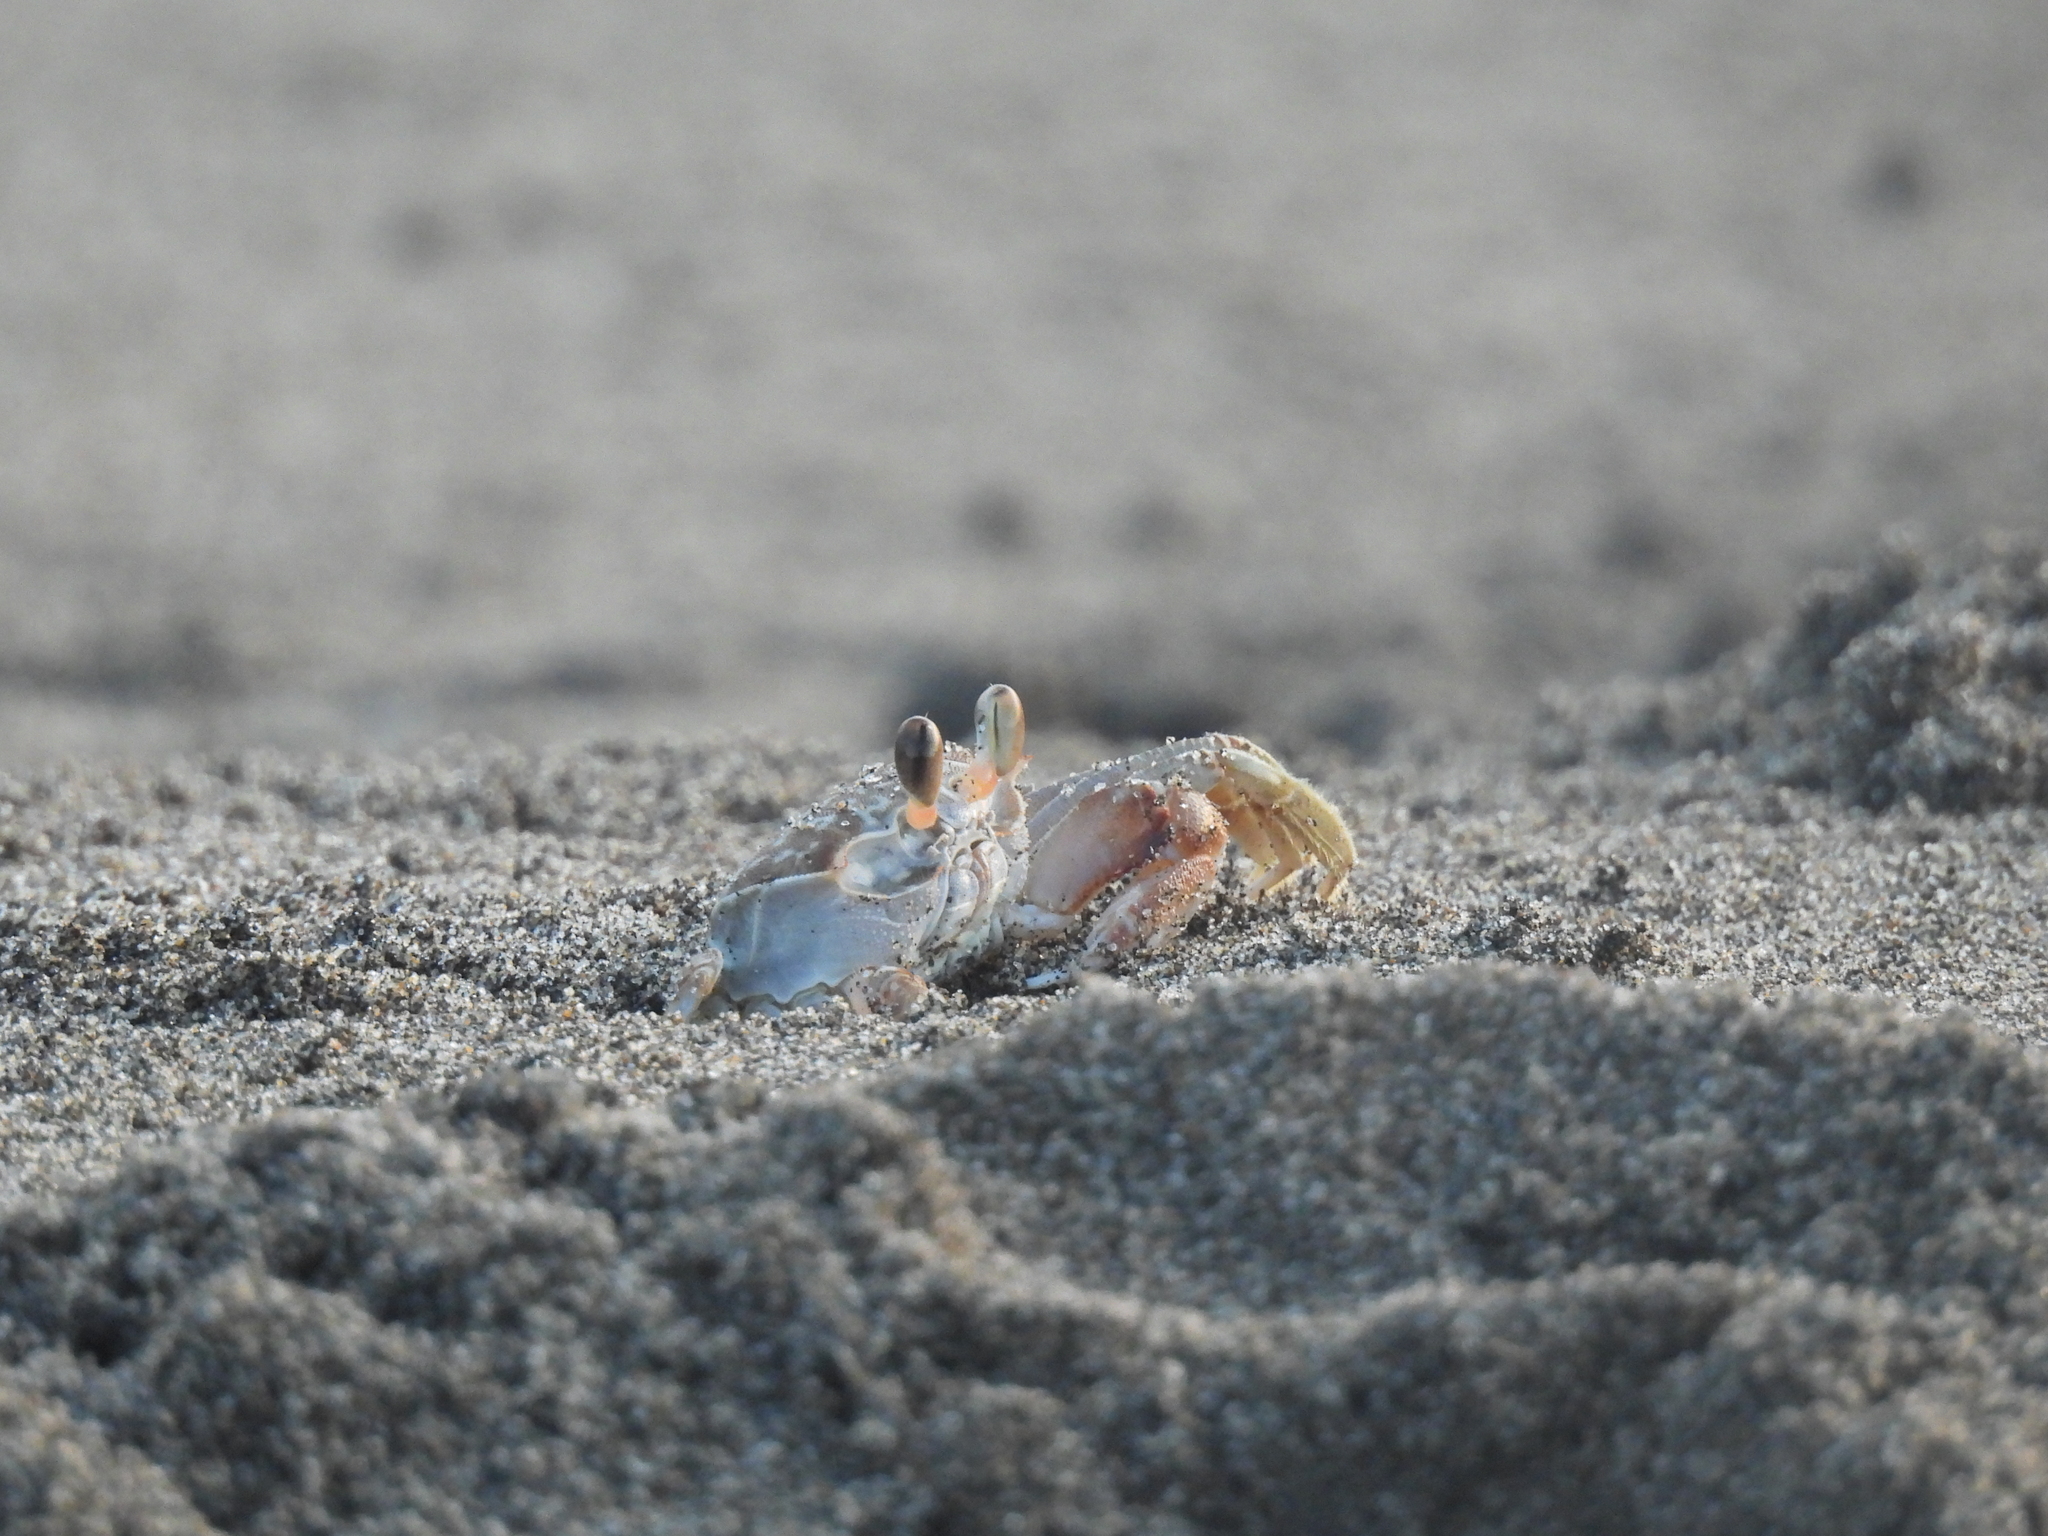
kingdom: Animalia
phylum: Arthropoda
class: Malacostraca
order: Decapoda
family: Ocypodidae
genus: Ocypode
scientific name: Ocypode occidentalis
